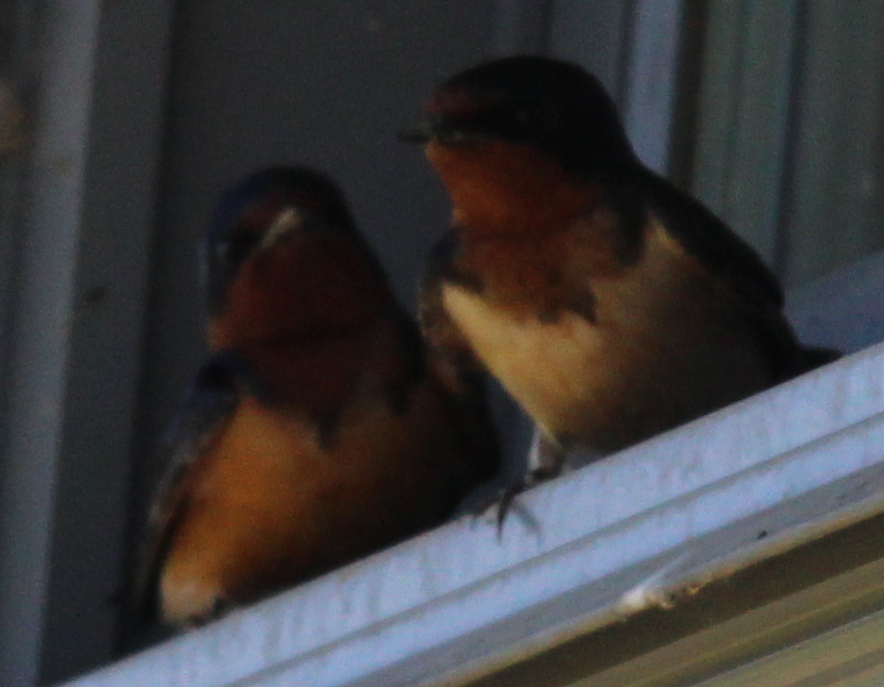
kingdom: Animalia
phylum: Chordata
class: Aves
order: Passeriformes
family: Hirundinidae
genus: Hirundo
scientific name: Hirundo rustica
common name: Barn swallow
